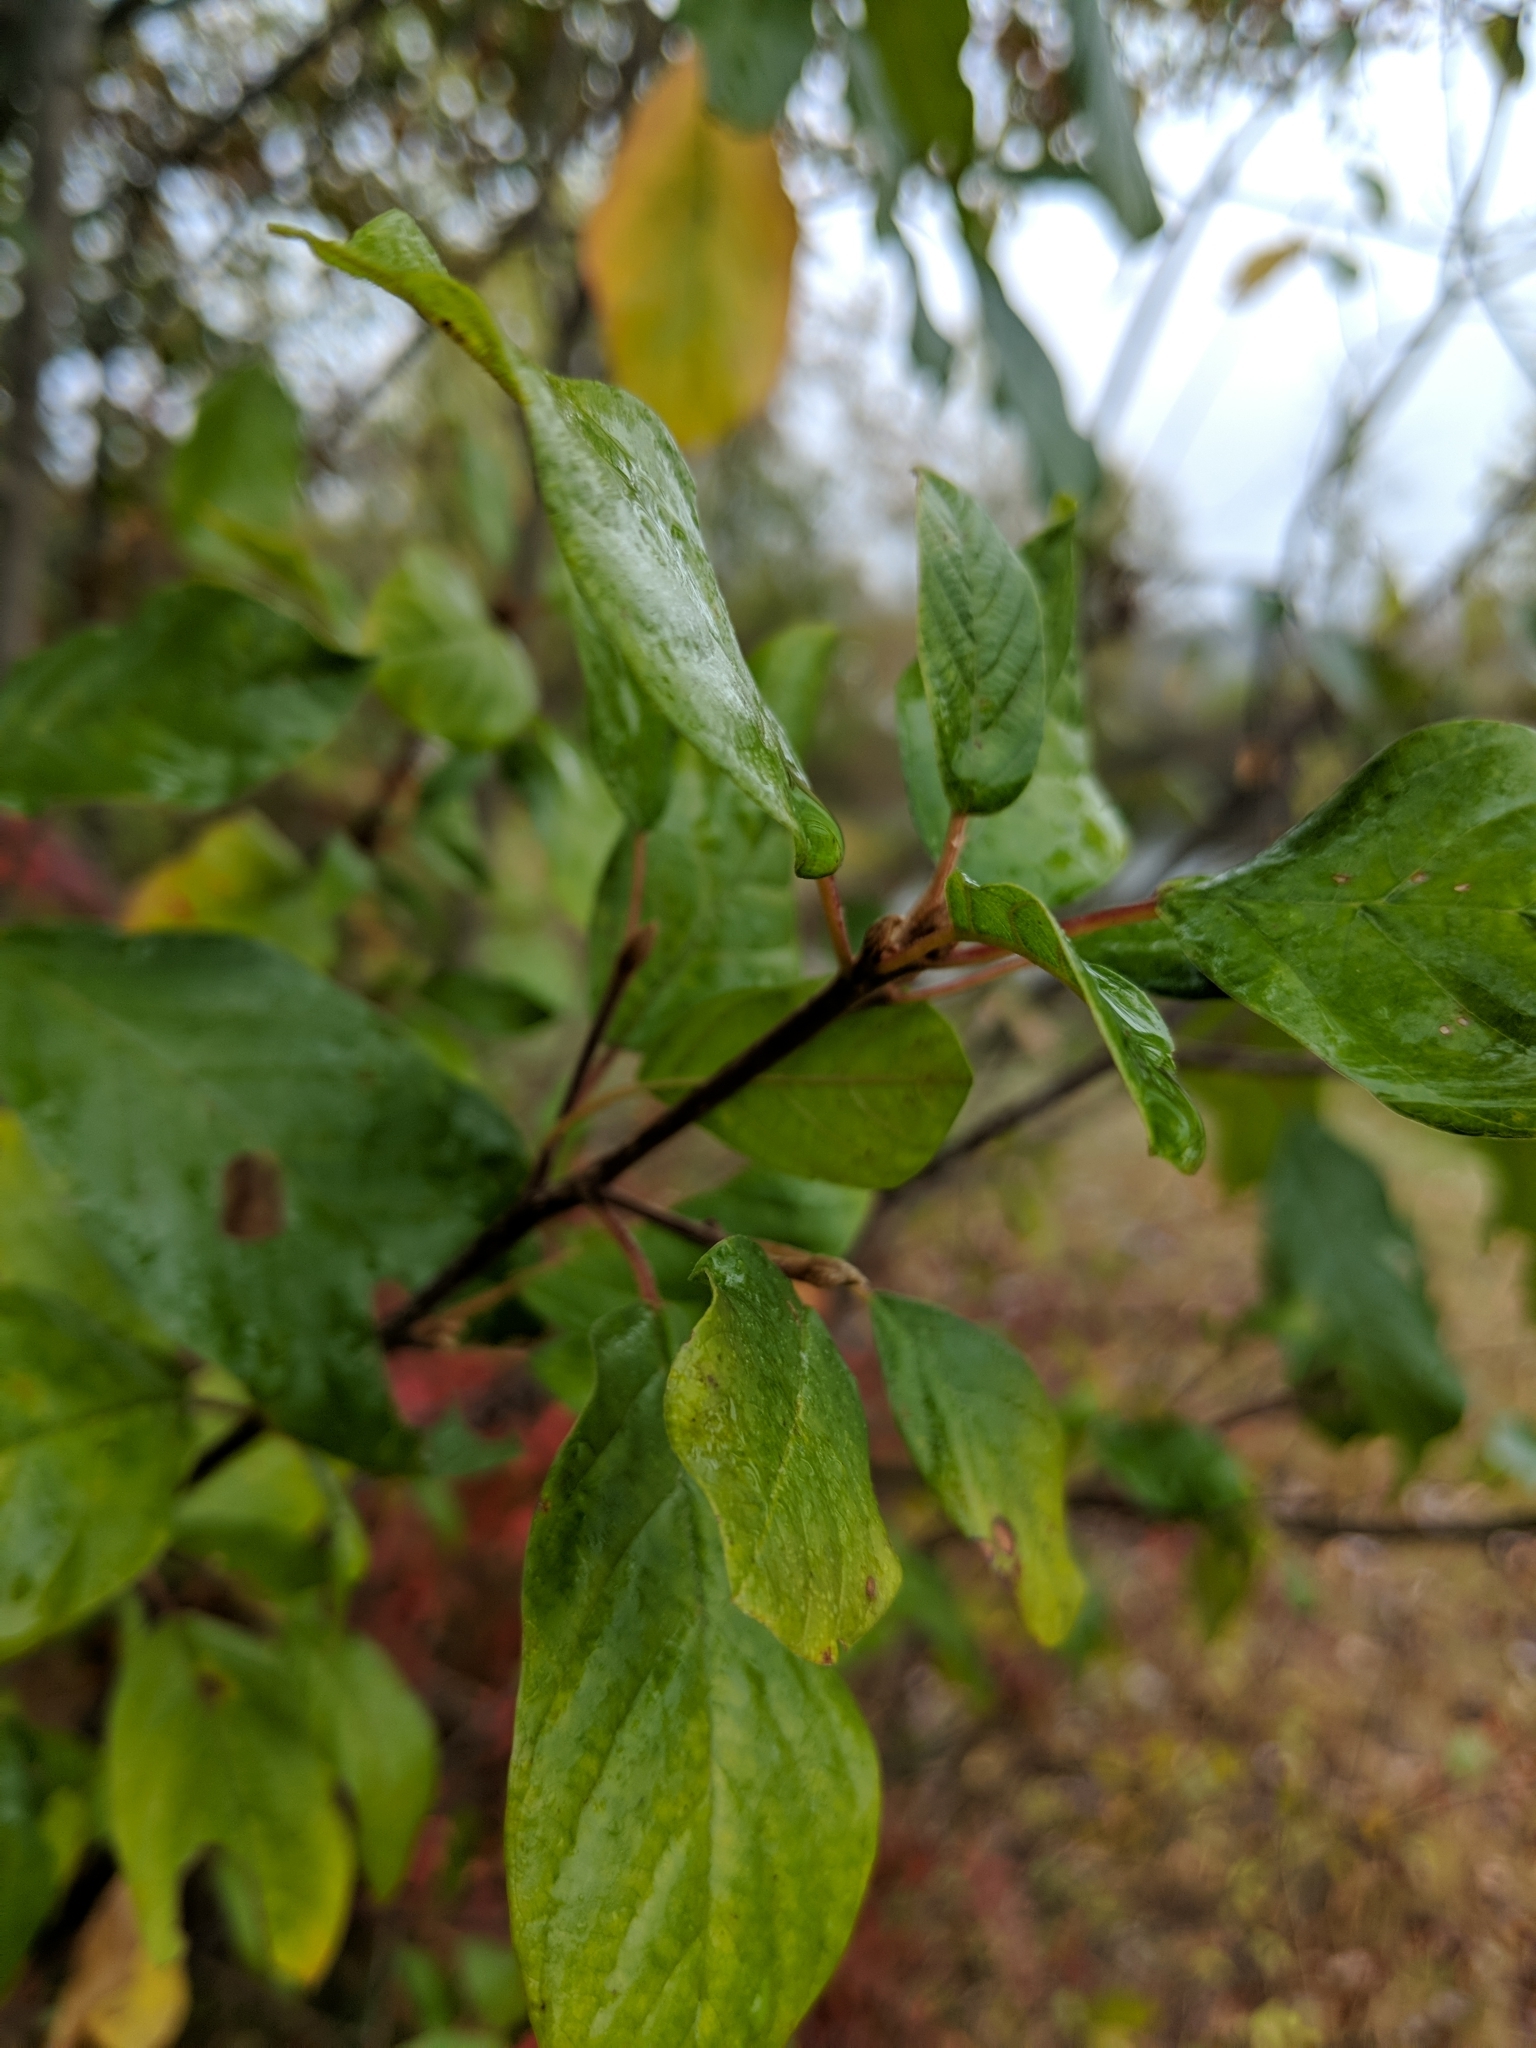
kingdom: Plantae
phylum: Tracheophyta
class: Magnoliopsida
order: Rosales
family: Rhamnaceae
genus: Frangula
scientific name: Frangula alnus
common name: Alder buckthorn
